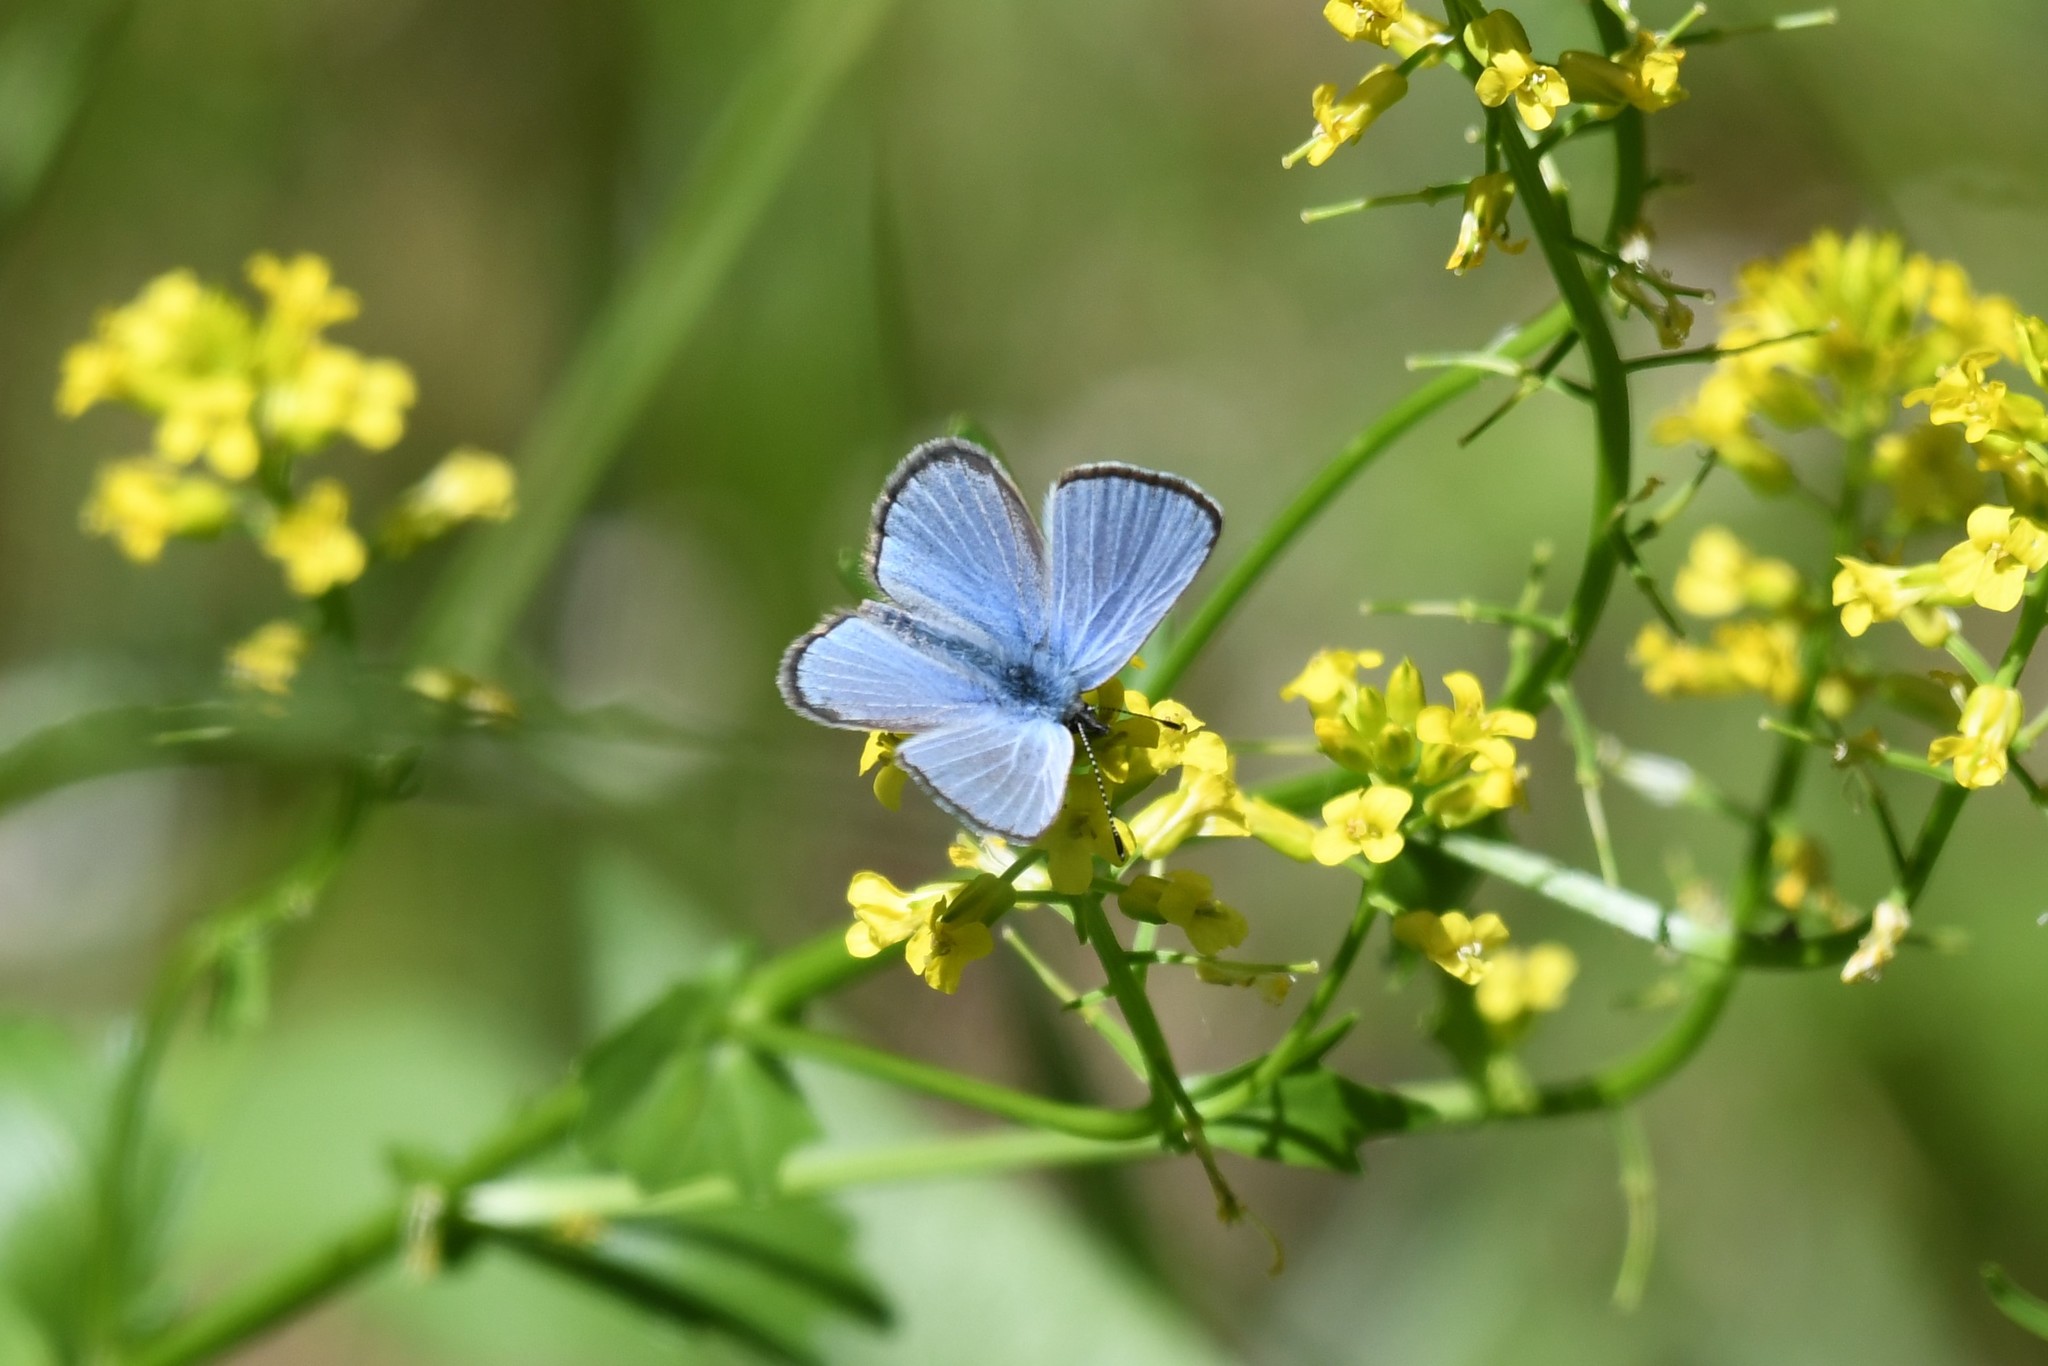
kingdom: Animalia
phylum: Arthropoda
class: Insecta
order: Lepidoptera
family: Lycaenidae
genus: Glaucopsyche
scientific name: Glaucopsyche lygdamus
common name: Silvery blue
